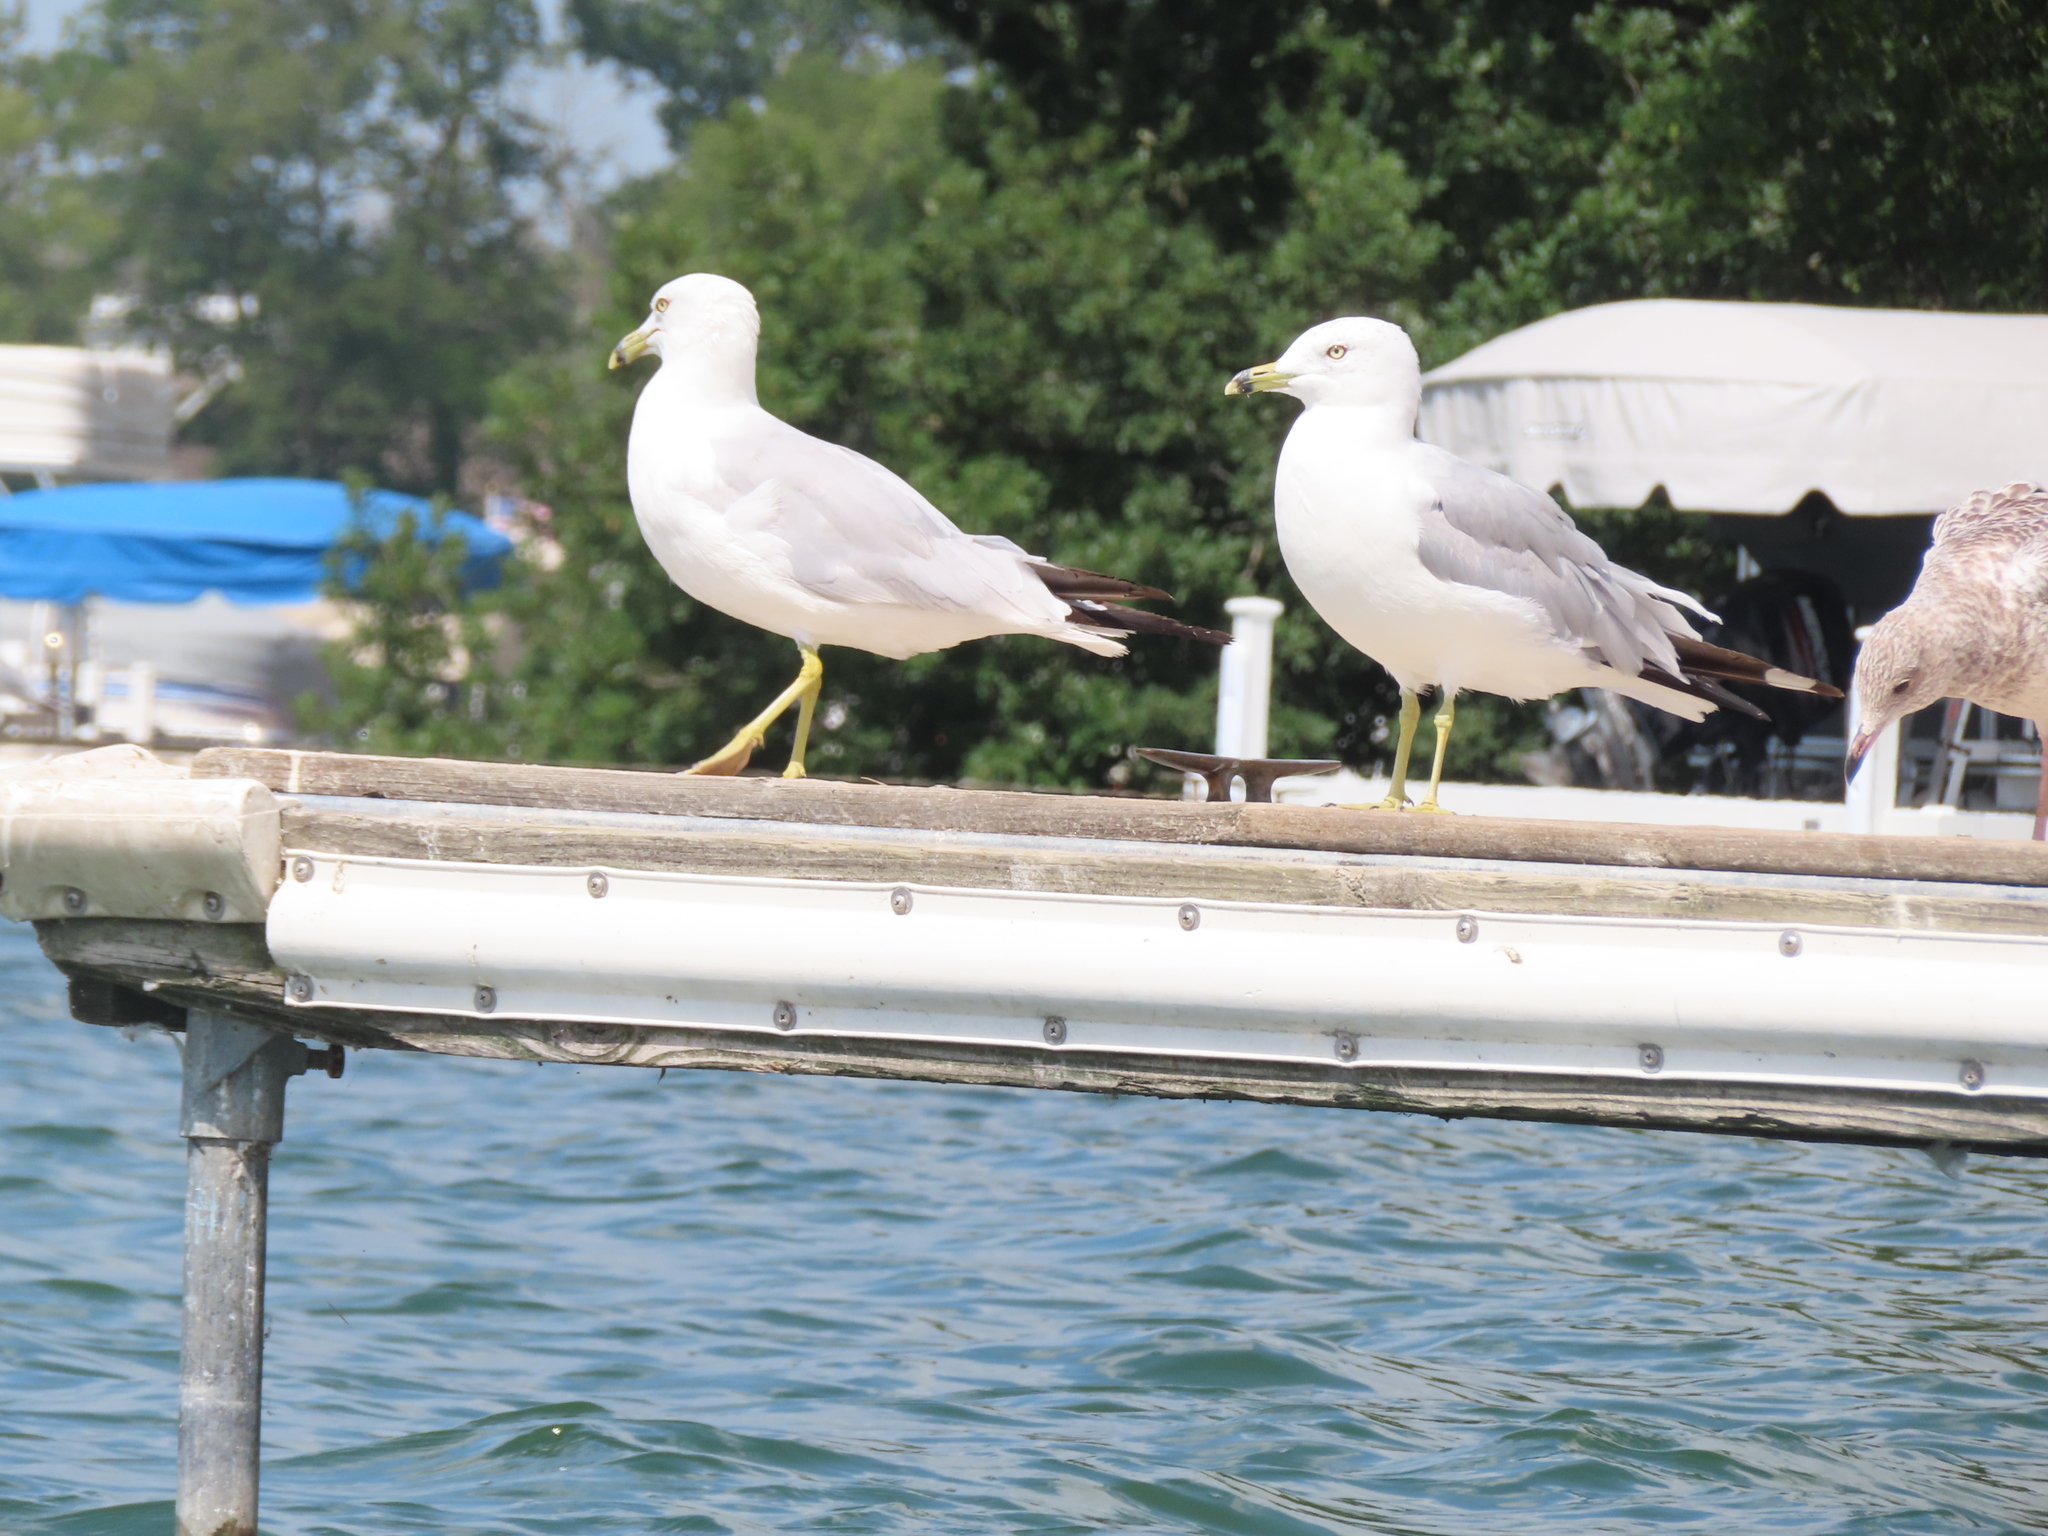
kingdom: Animalia
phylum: Chordata
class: Aves
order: Charadriiformes
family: Laridae
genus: Larus
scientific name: Larus delawarensis
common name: Ring-billed gull
